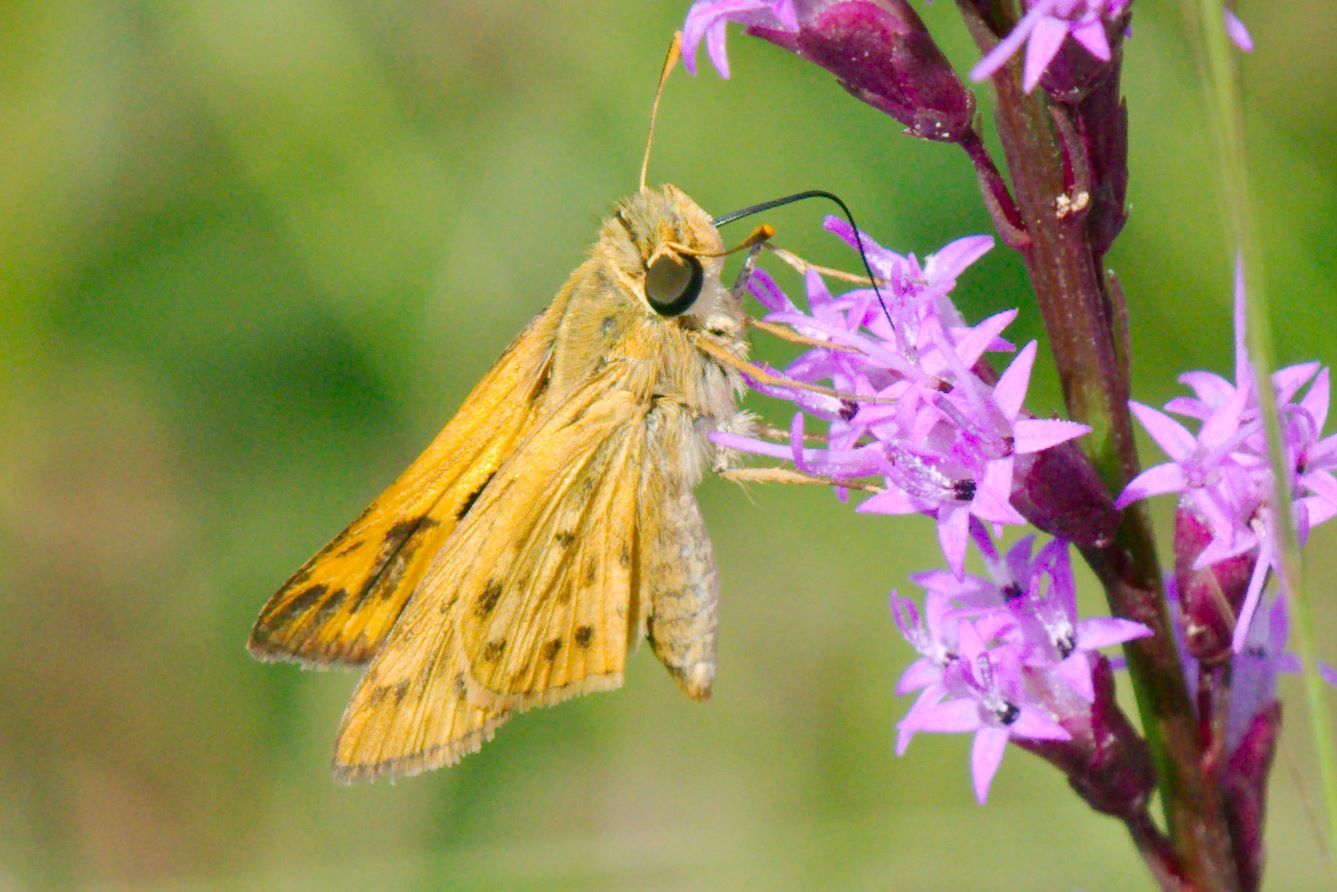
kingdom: Animalia
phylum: Arthropoda
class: Insecta
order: Lepidoptera
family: Hesperiidae
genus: Hylephila
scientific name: Hylephila phyleus
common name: Fiery skipper
